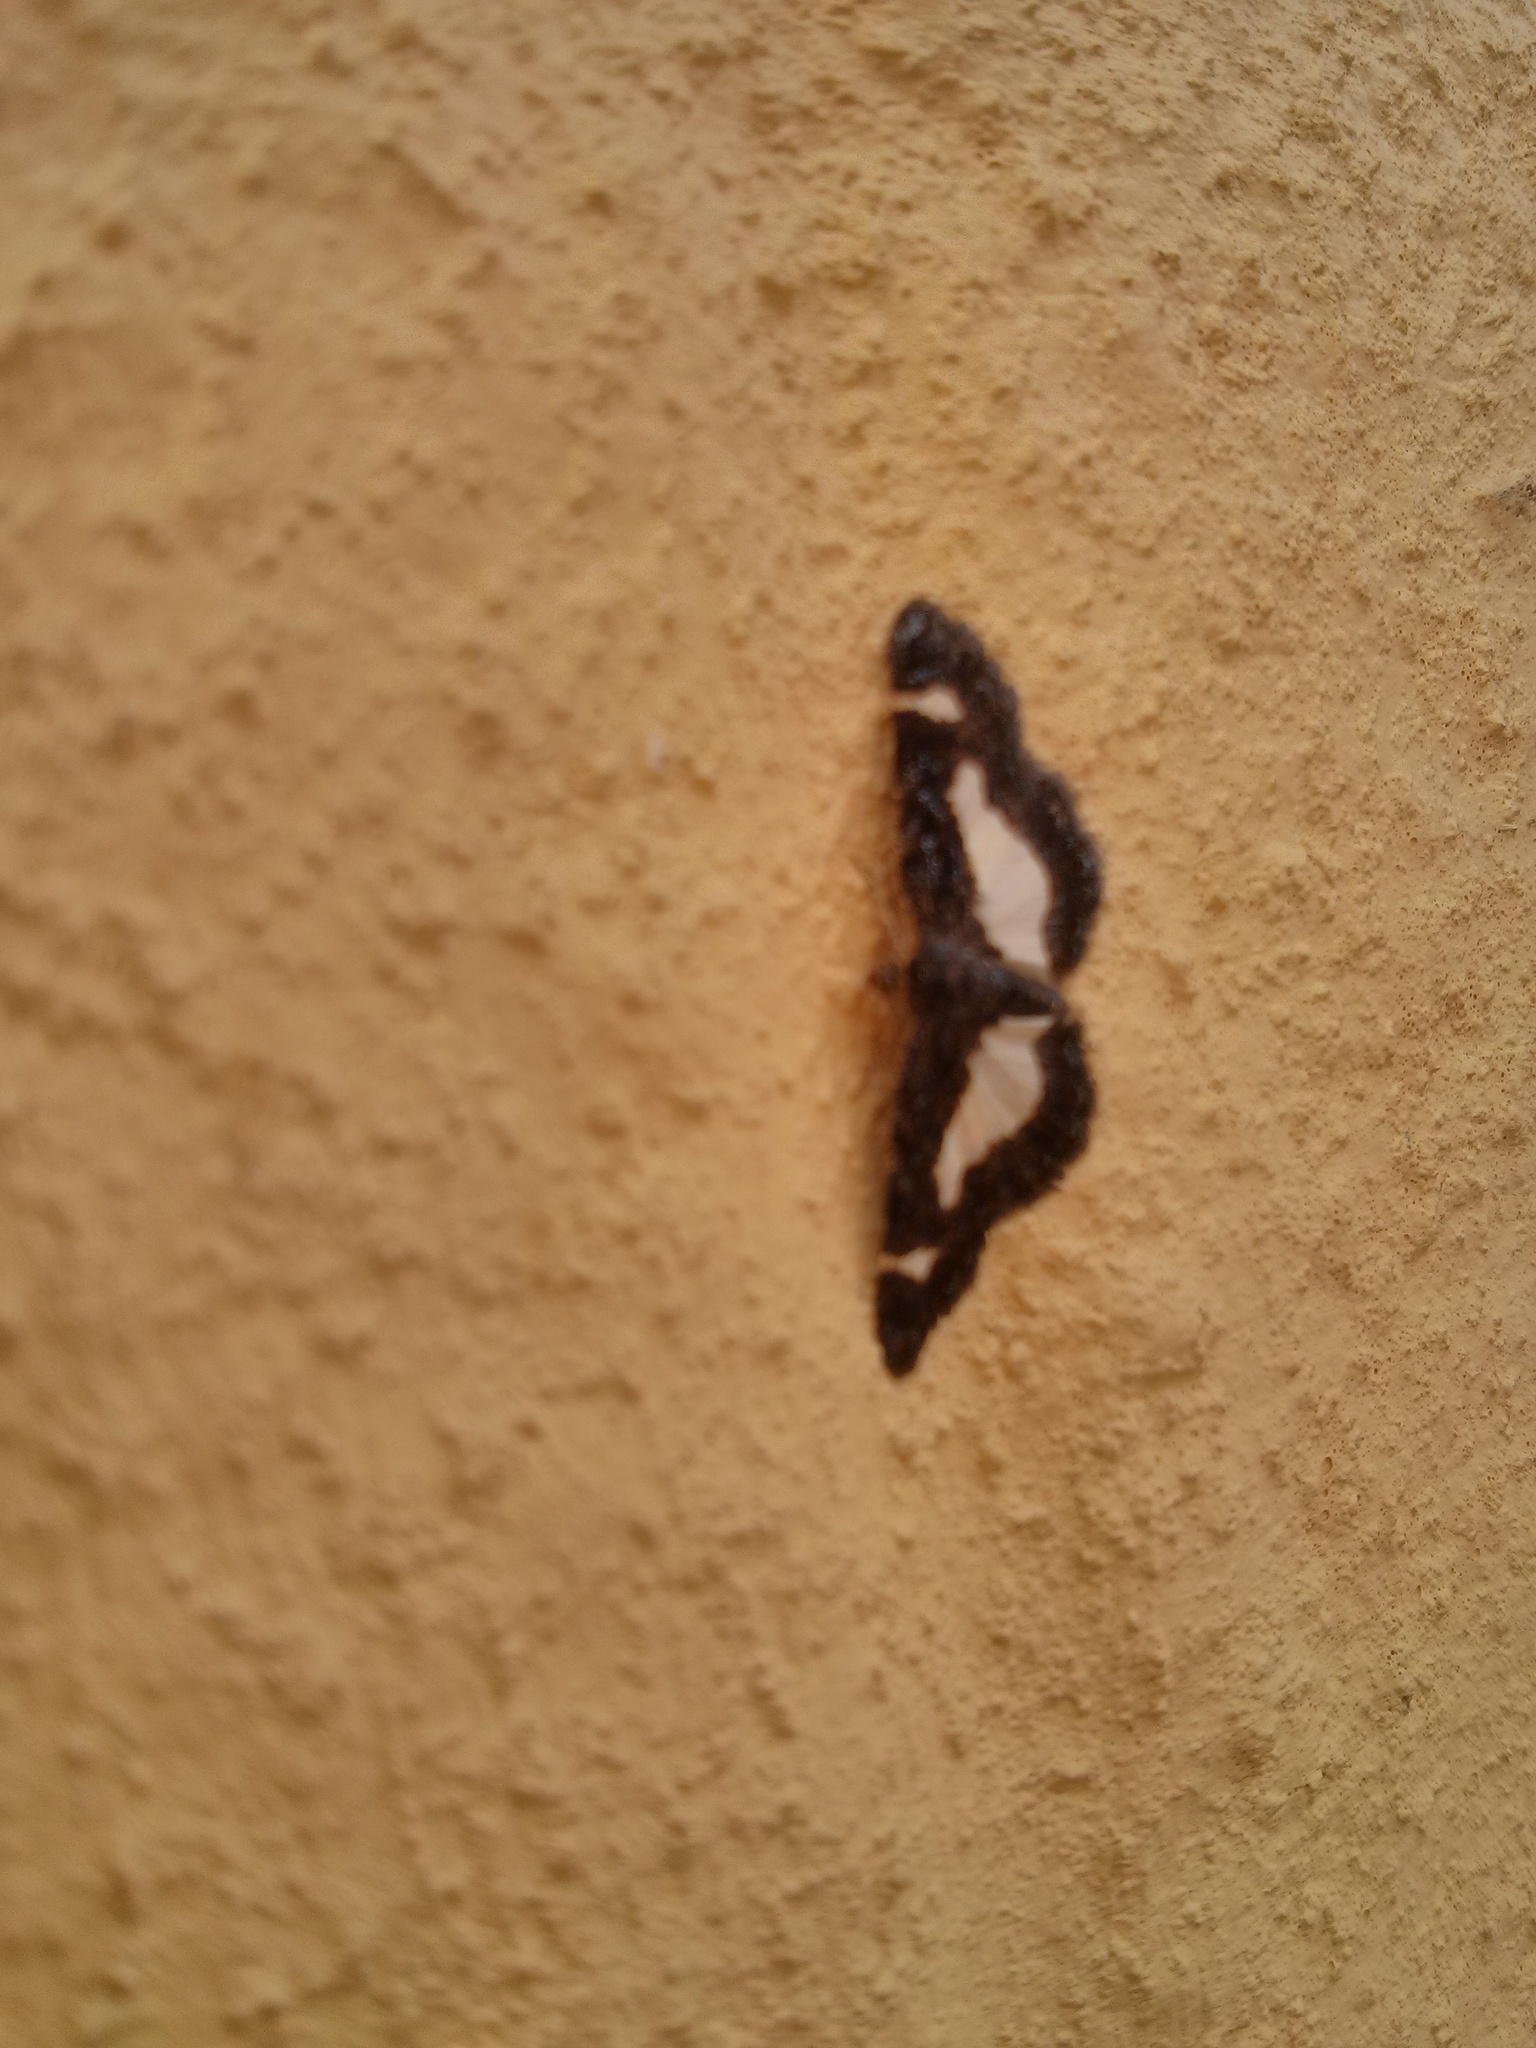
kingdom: Animalia
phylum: Arthropoda
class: Insecta
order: Lepidoptera
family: Geometridae
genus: Heliomata
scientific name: Heliomata cycladata
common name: Common spring moth
